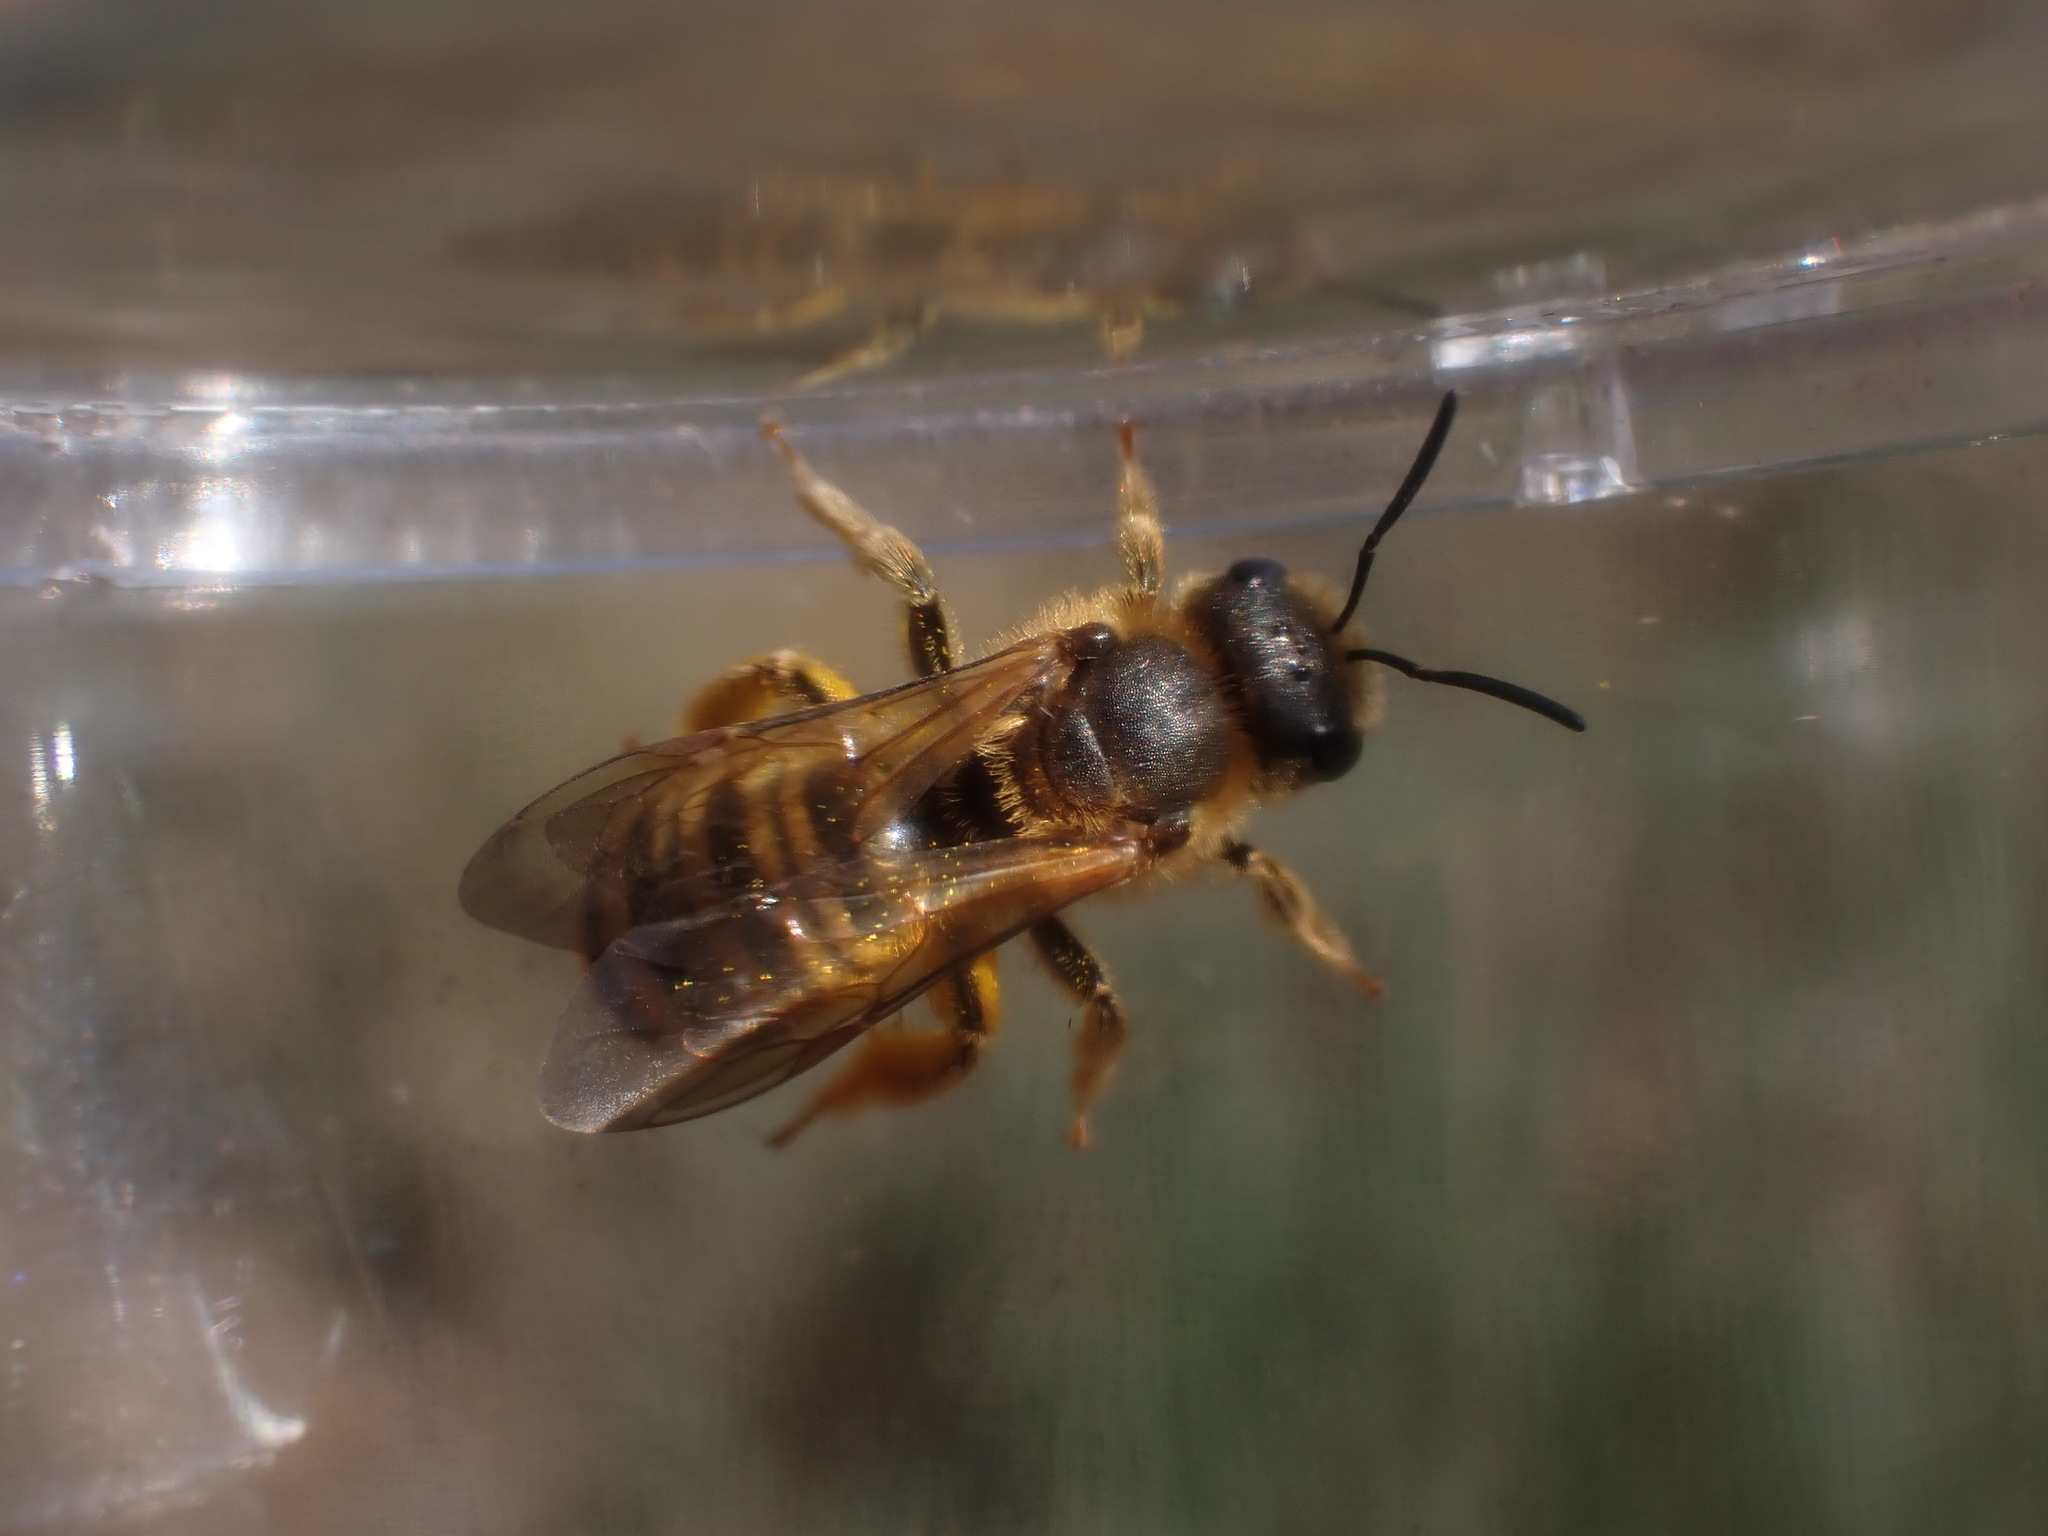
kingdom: Animalia
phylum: Arthropoda
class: Insecta
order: Hymenoptera
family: Halictidae
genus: Halictus
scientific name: Halictus scabiosae
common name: Great banded furrow bee
